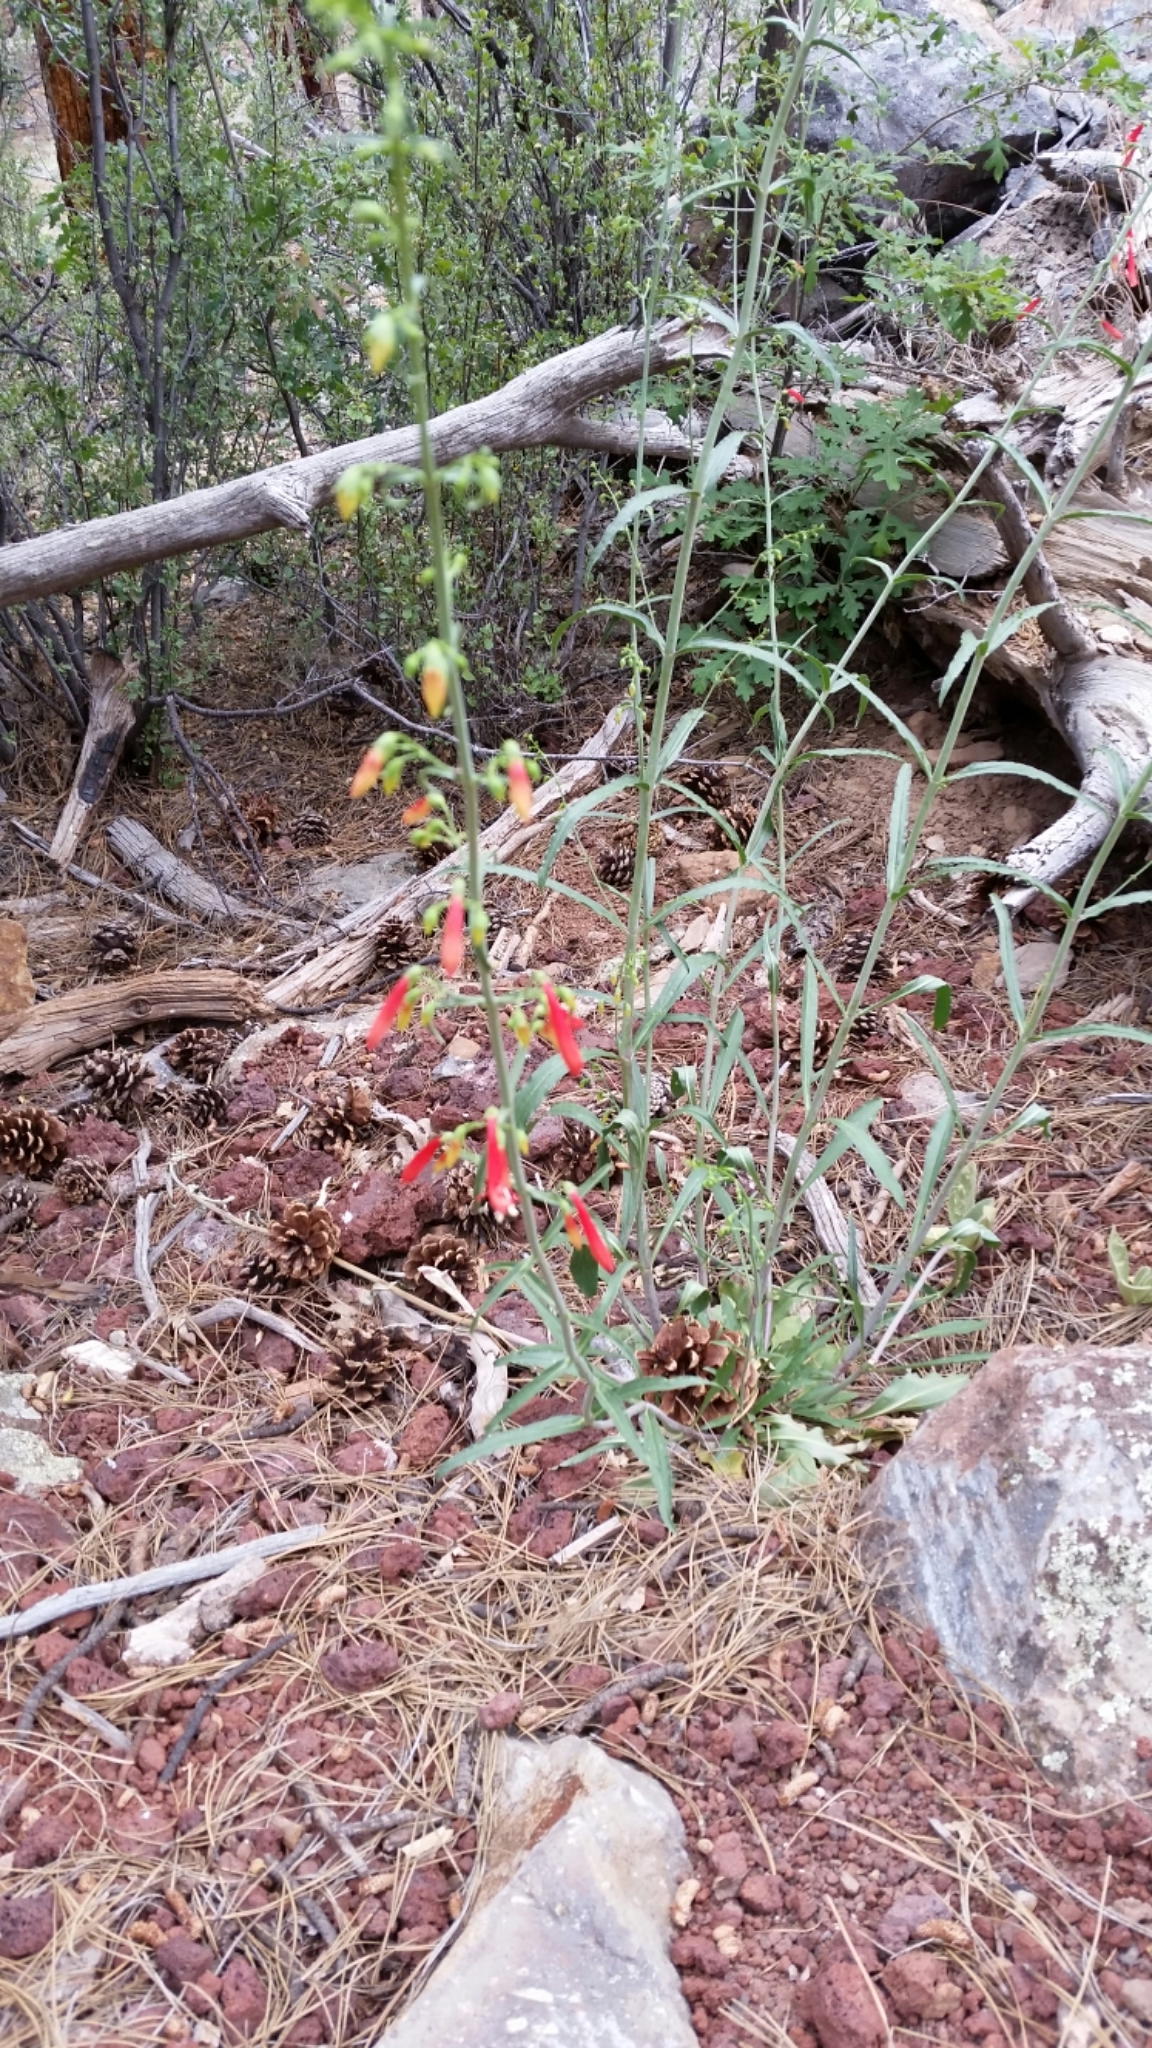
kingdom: Plantae
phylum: Tracheophyta
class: Magnoliopsida
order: Lamiales
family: Plantaginaceae
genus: Penstemon
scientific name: Penstemon barbatus
